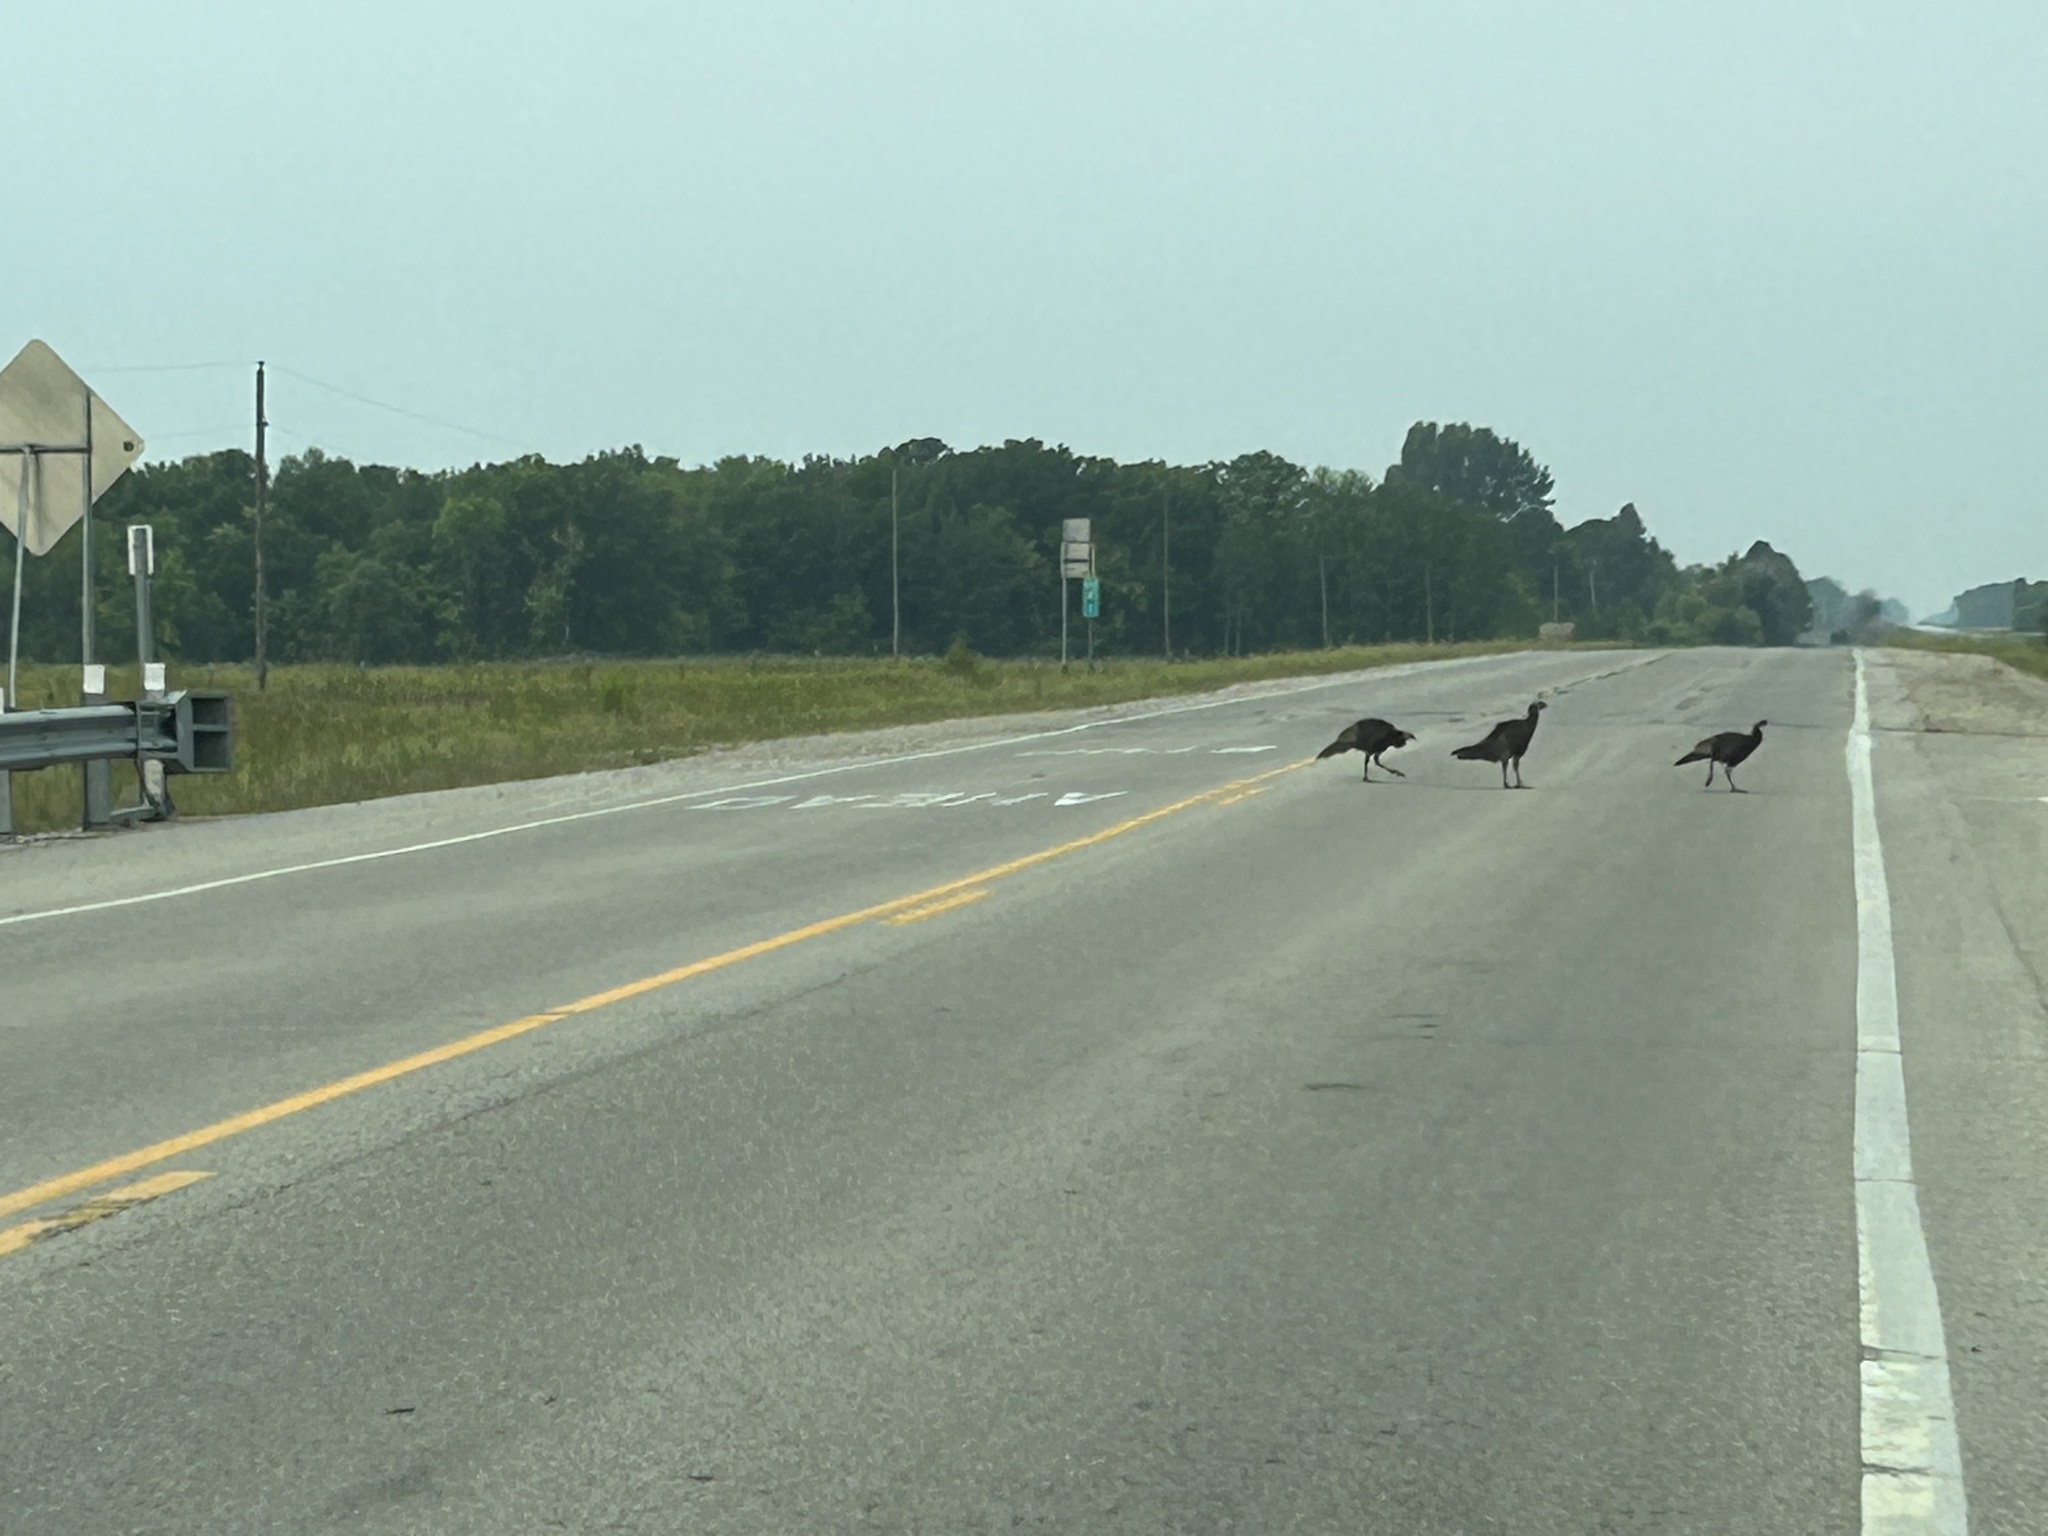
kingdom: Animalia
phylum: Chordata
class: Aves
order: Galliformes
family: Phasianidae
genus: Meleagris
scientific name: Meleagris gallopavo
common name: Wild turkey
